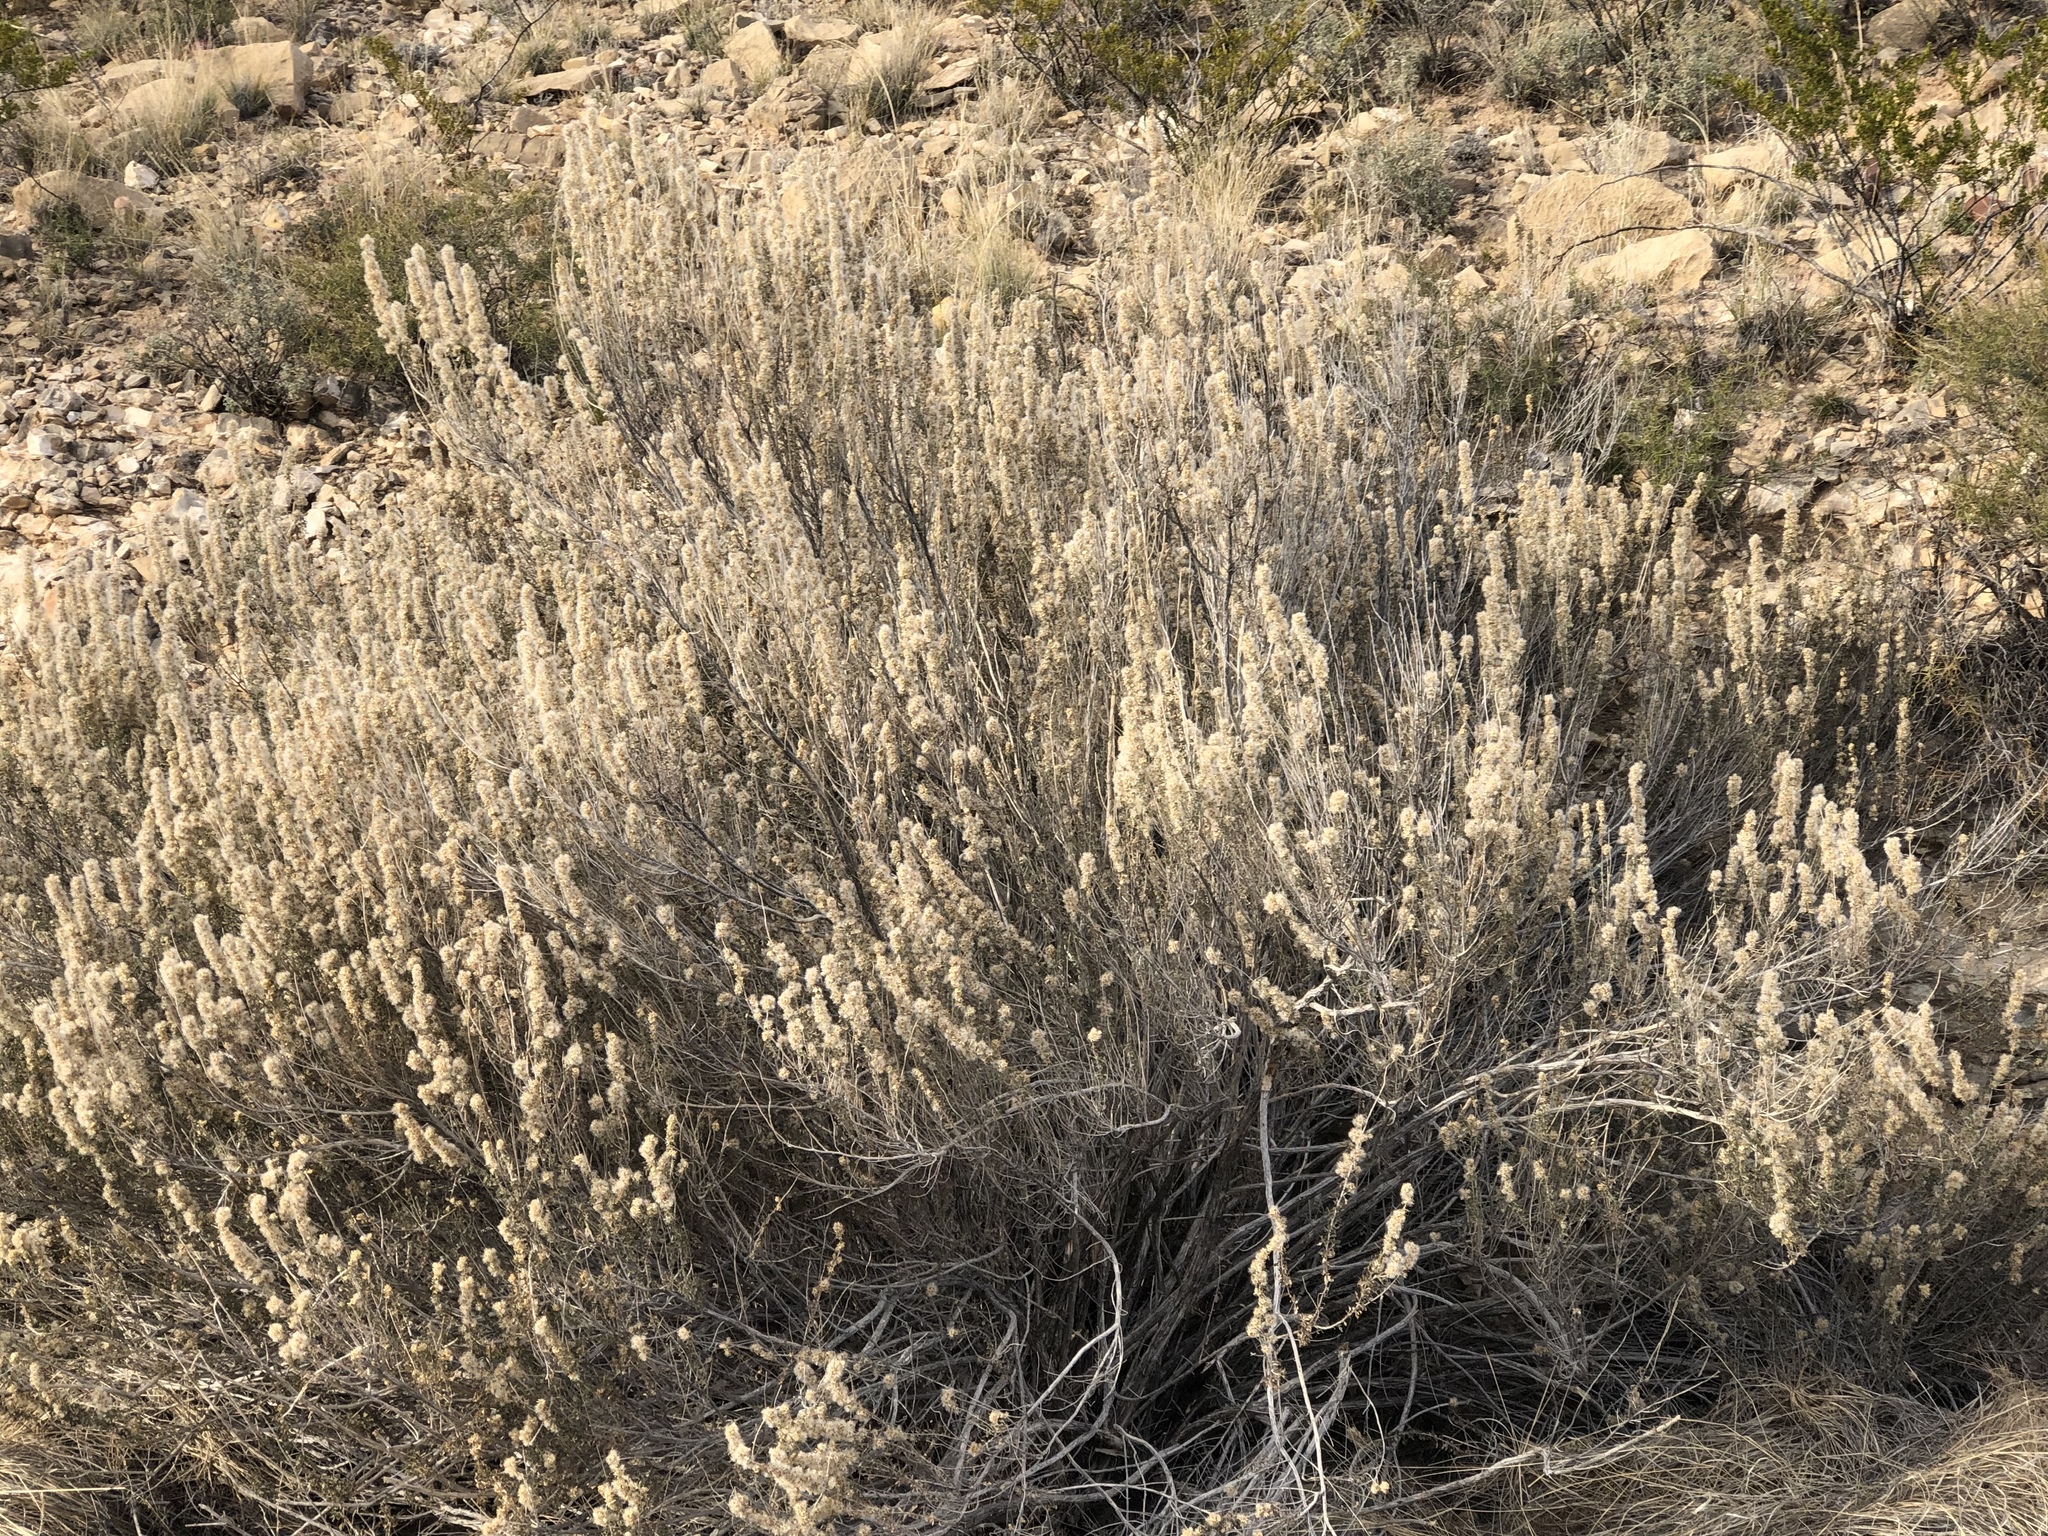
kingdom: Plantae
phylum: Tracheophyta
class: Magnoliopsida
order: Asterales
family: Asteraceae
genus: Brickellia
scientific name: Brickellia laciniata
